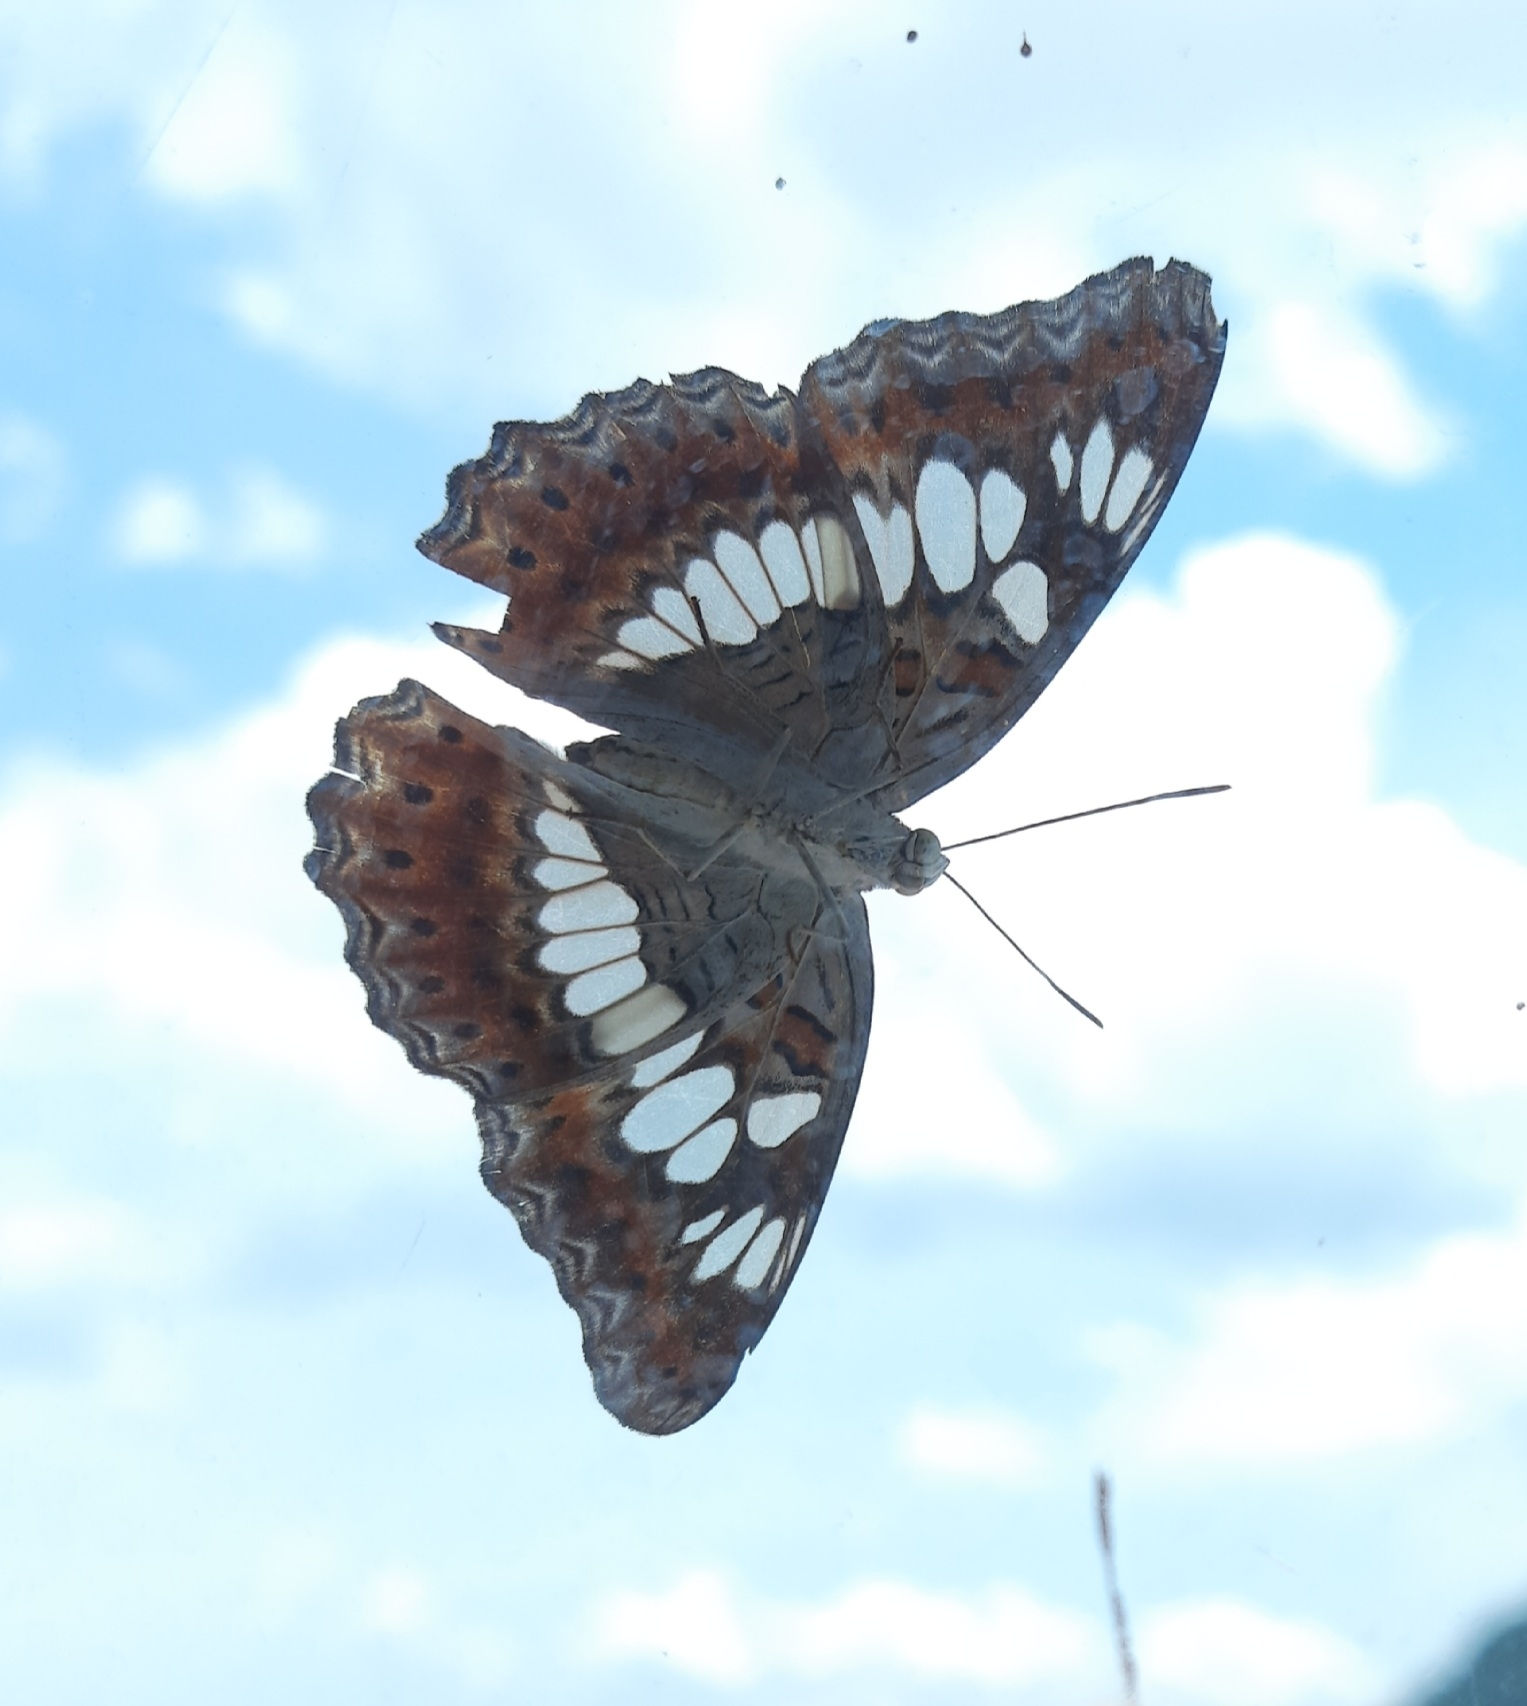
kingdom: Animalia
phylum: Arthropoda
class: Insecta
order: Lepidoptera
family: Nymphalidae
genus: Limenitis
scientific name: Limenitis Moduza procris
